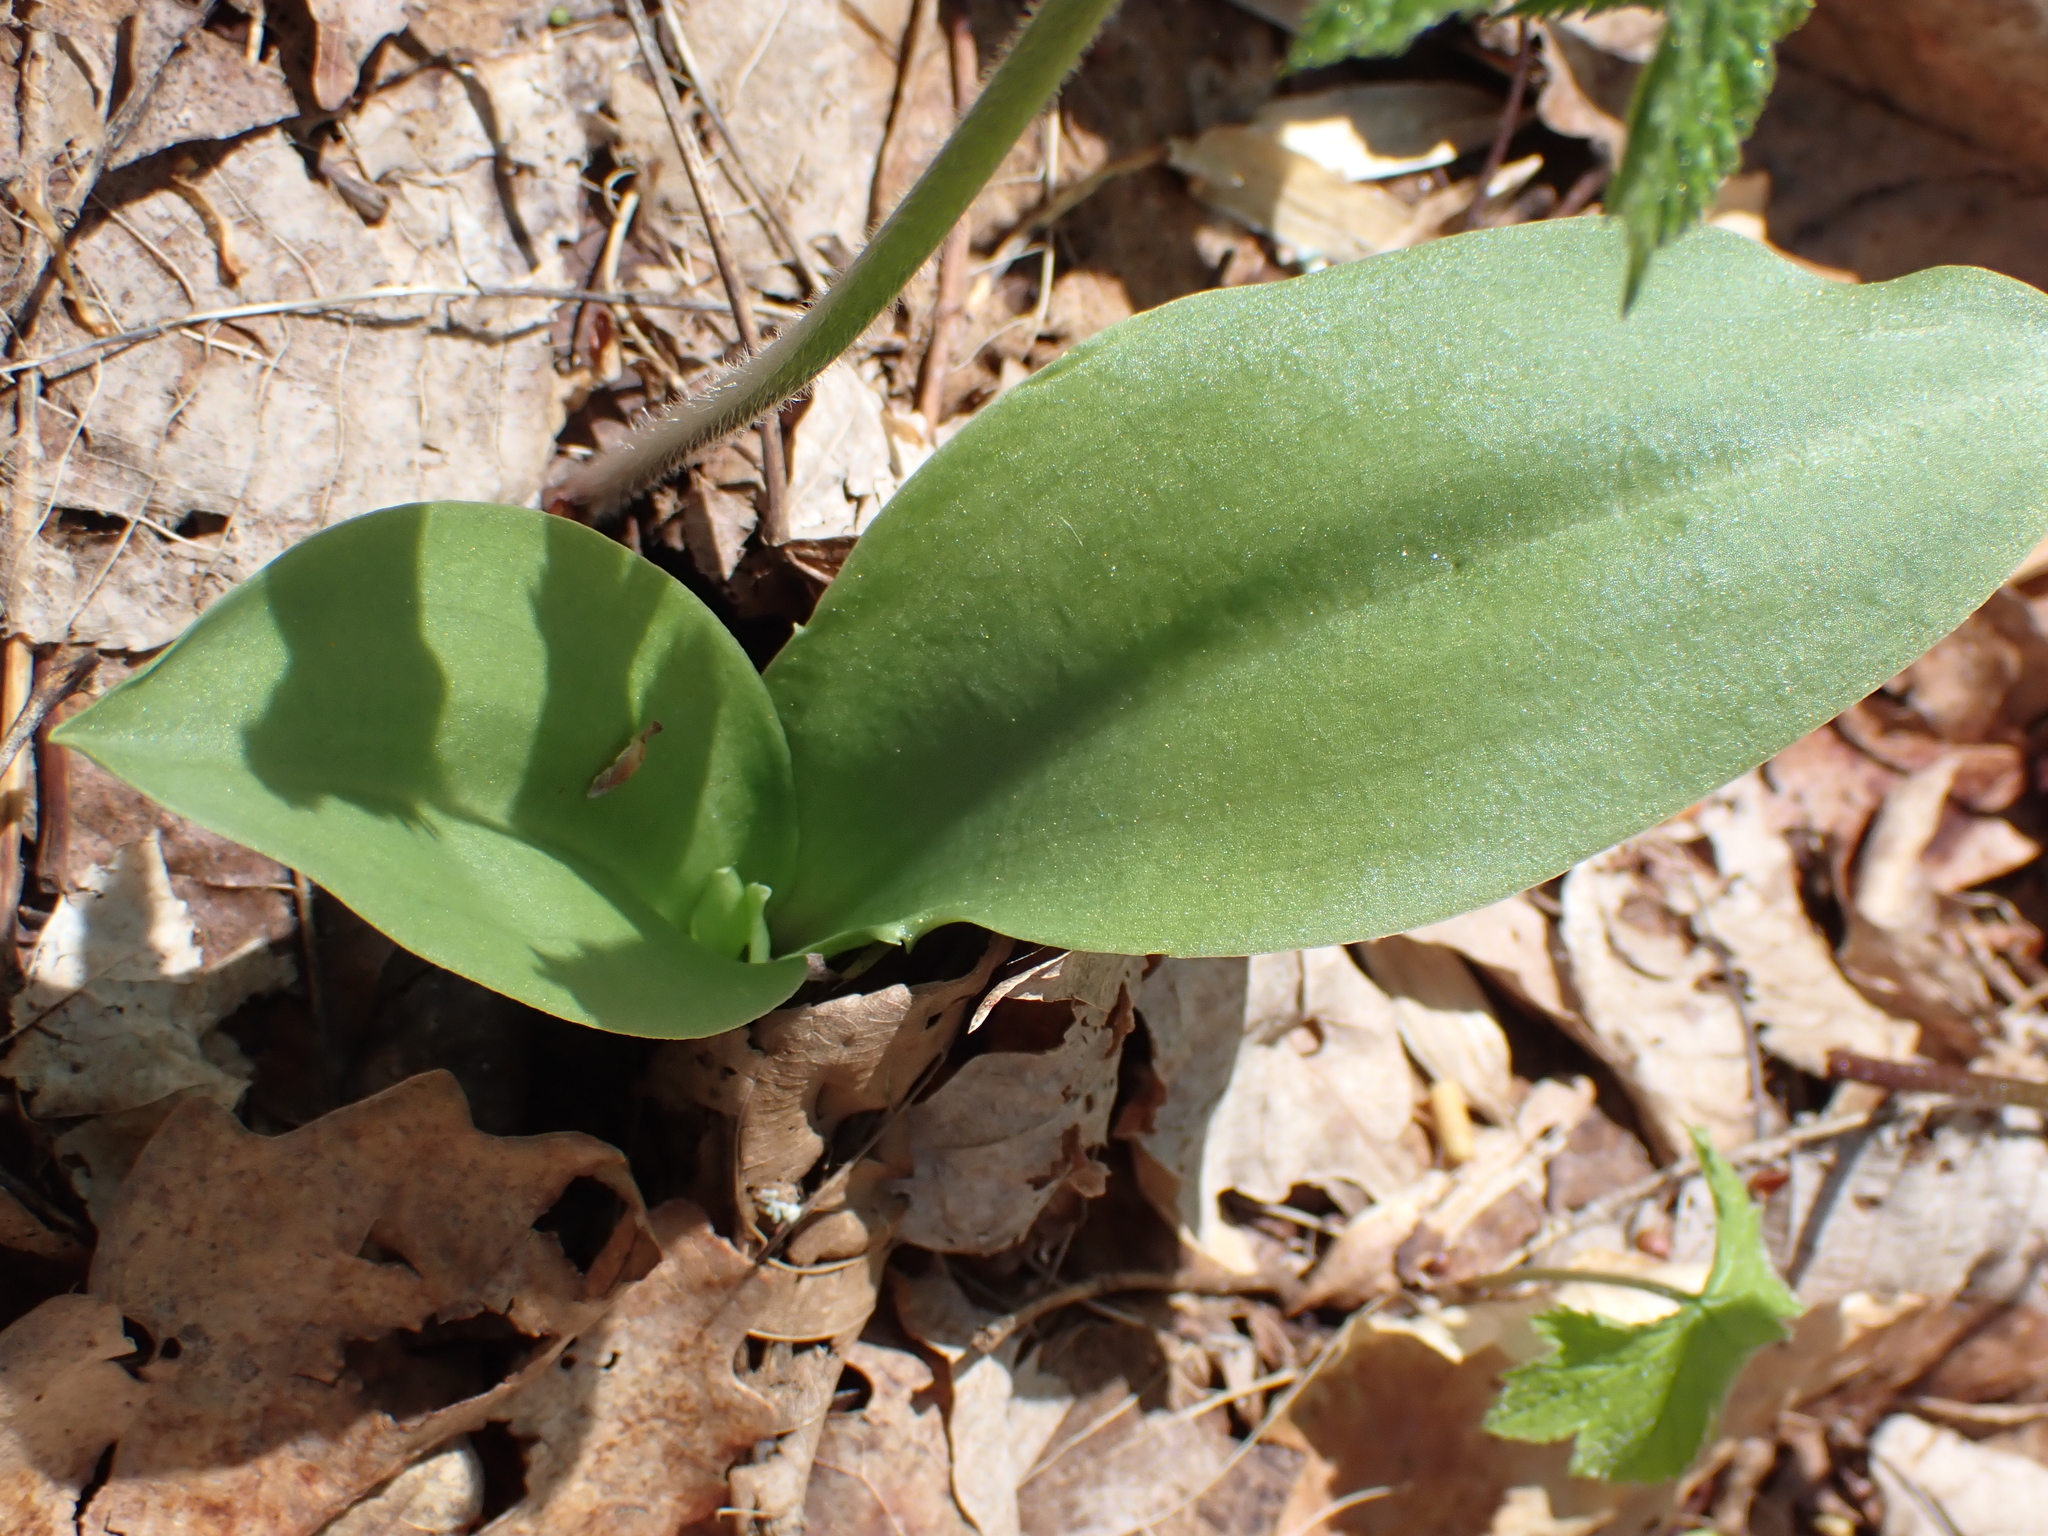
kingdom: Plantae
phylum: Tracheophyta
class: Liliopsida
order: Asparagales
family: Orchidaceae
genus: Galearis
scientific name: Galearis spectabilis
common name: Purple-hooded orchis
